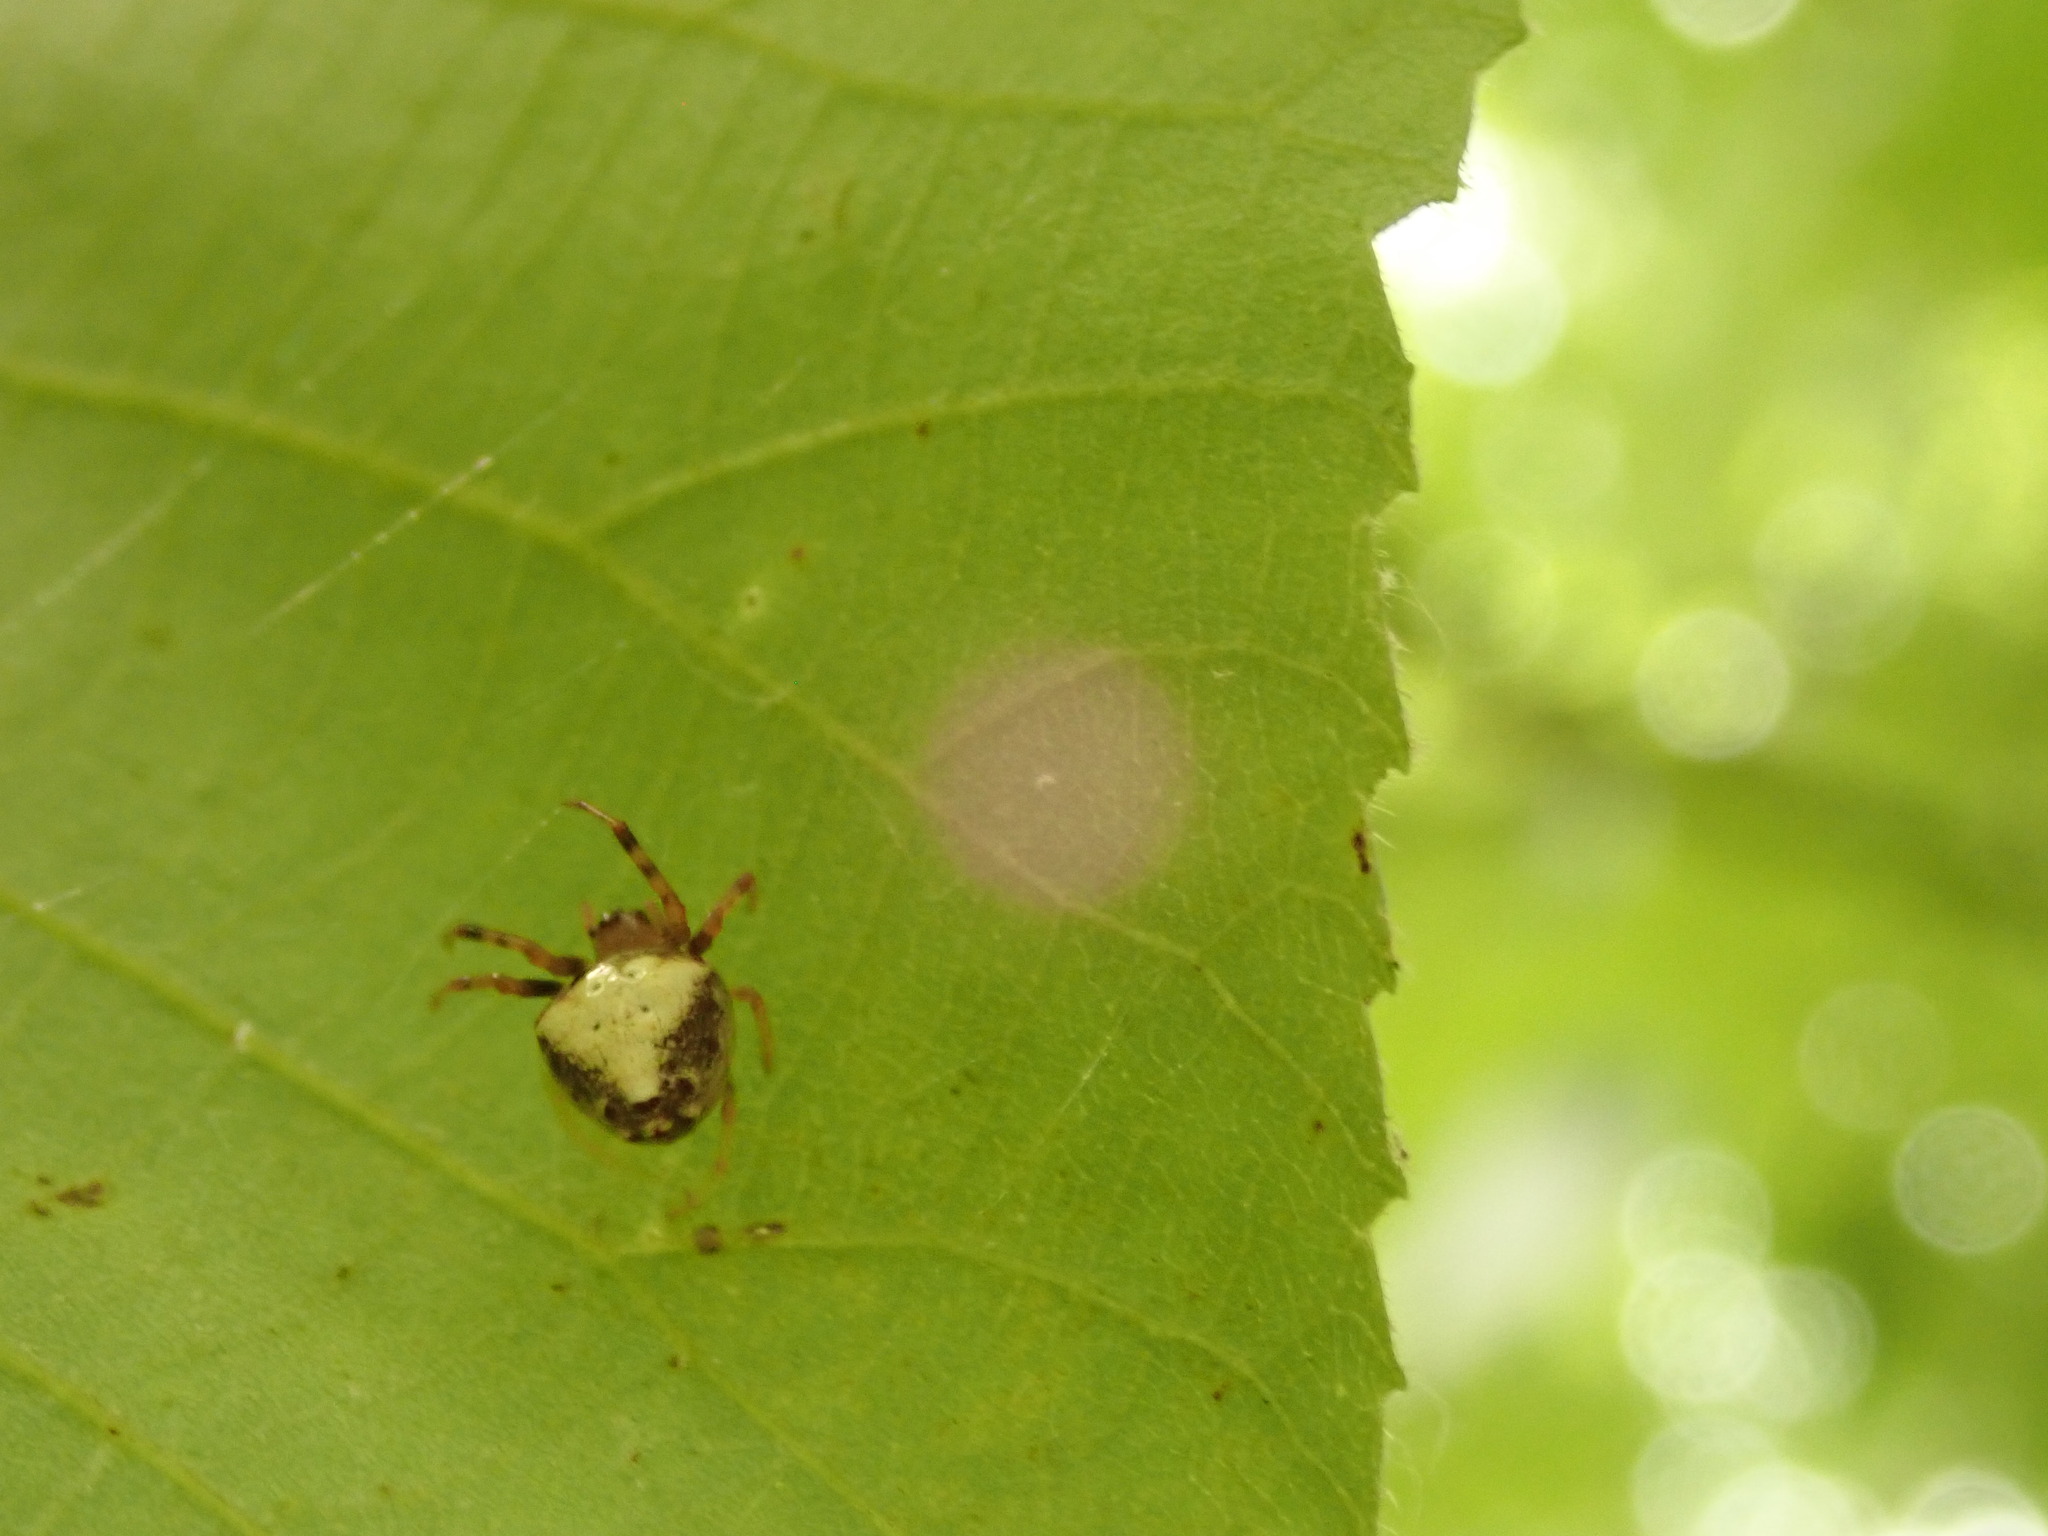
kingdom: Animalia
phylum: Arthropoda
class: Arachnida
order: Araneae
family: Araneidae
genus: Verrucosa
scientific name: Verrucosa arenata
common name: Orb weavers
